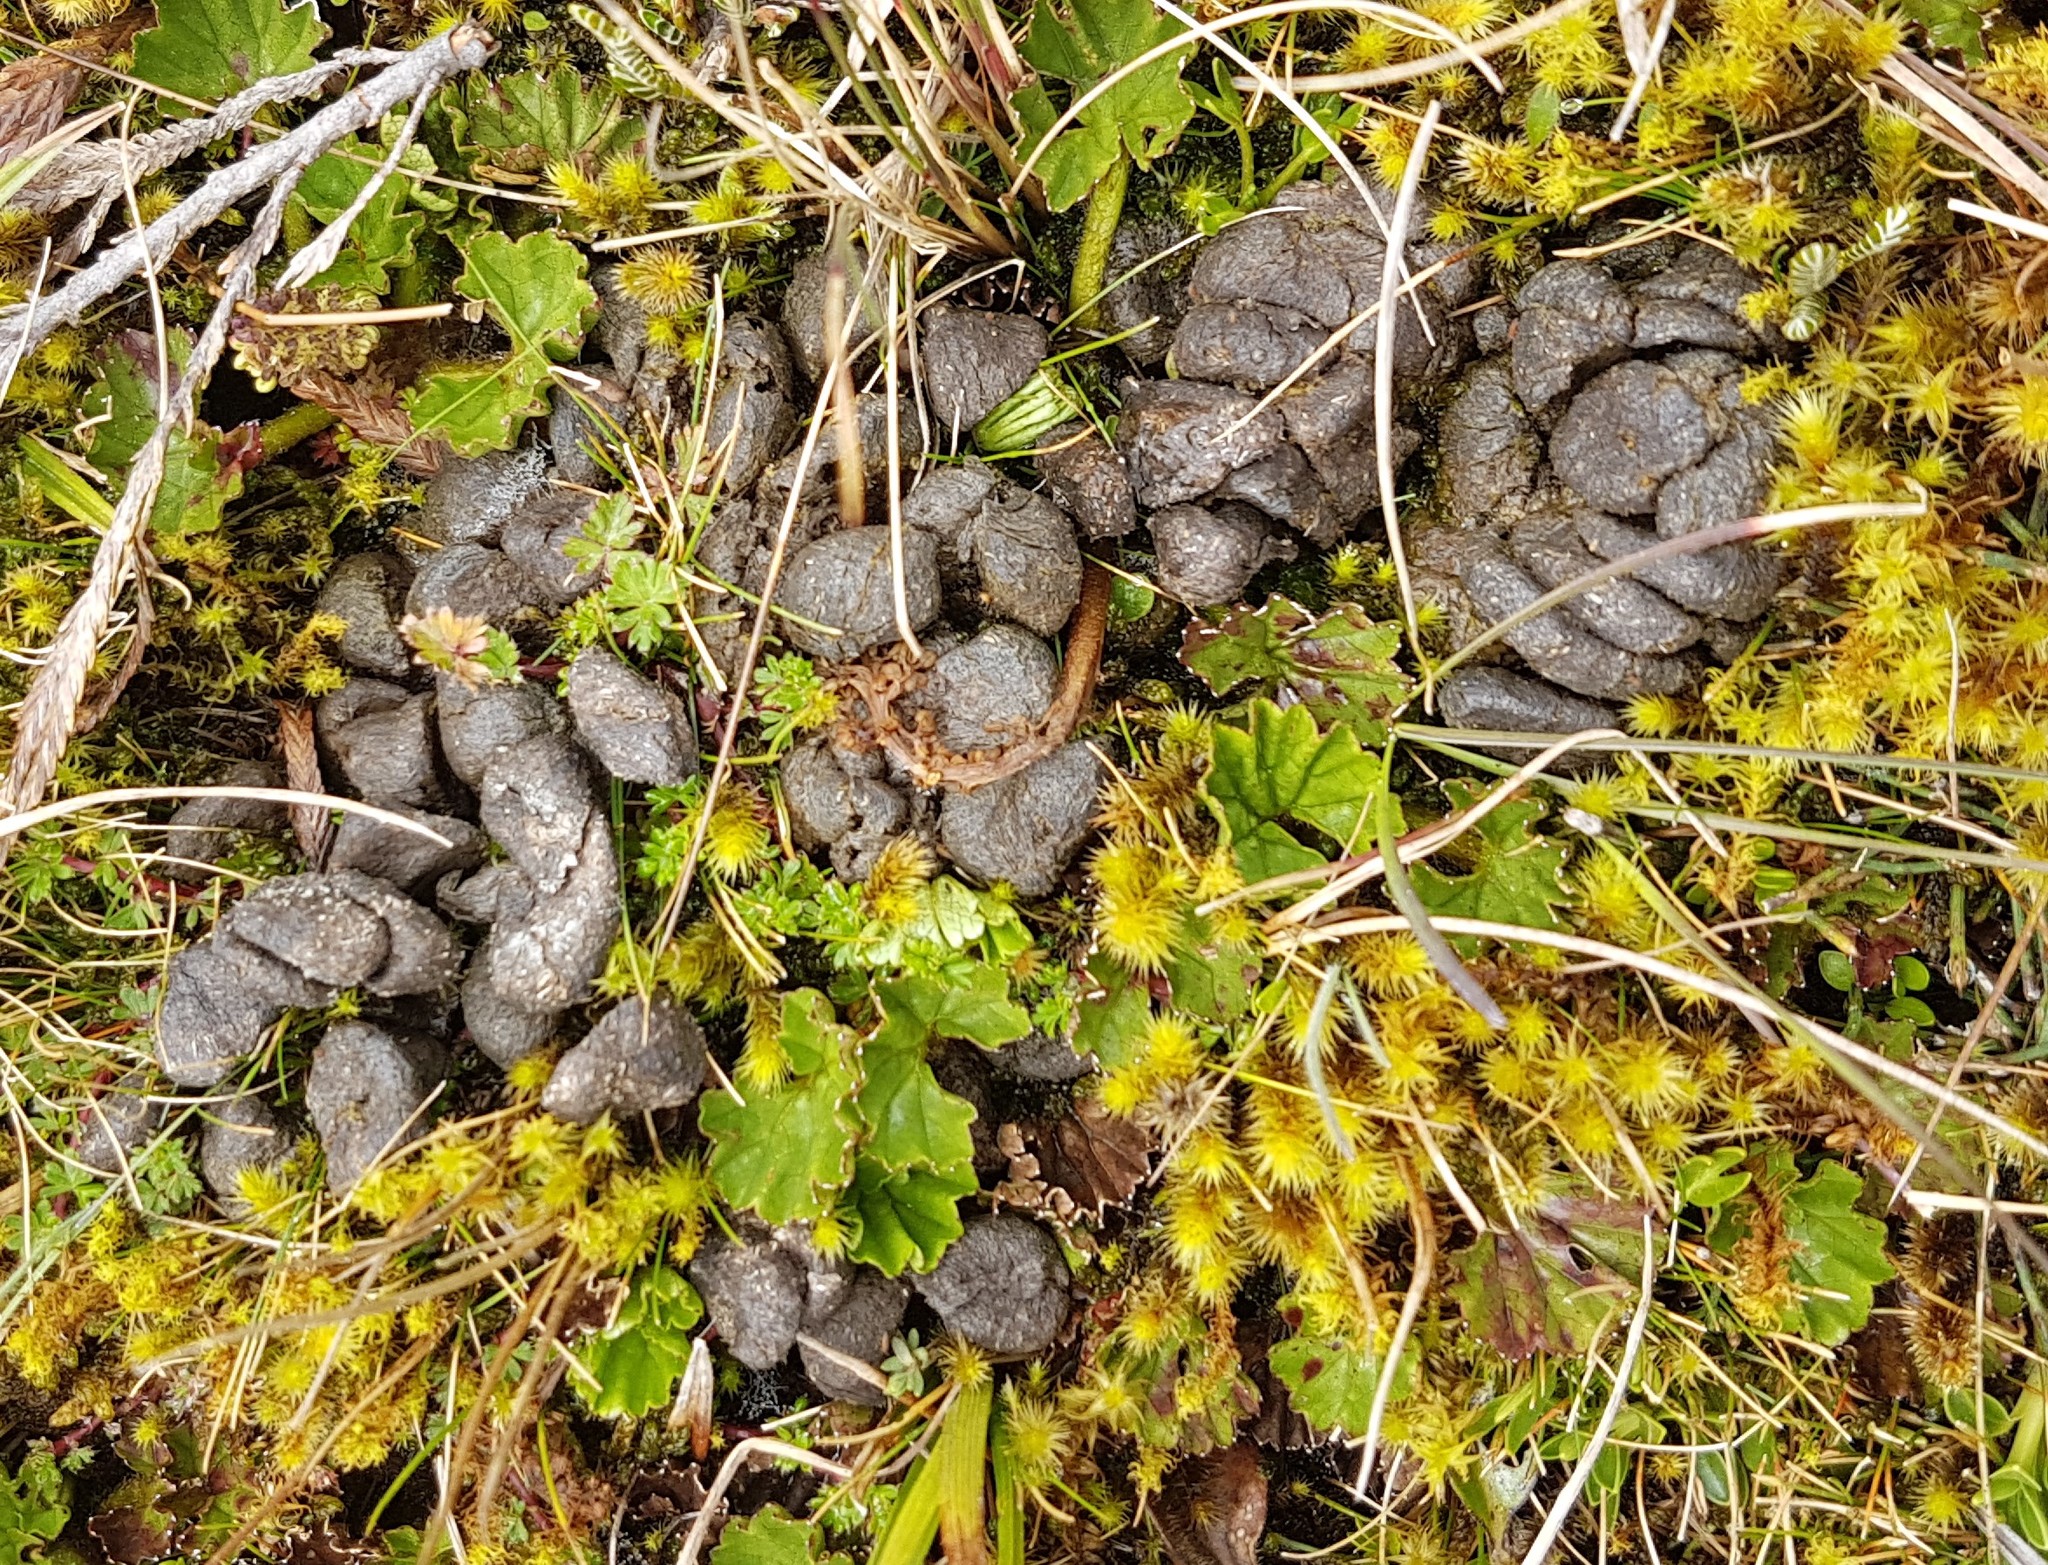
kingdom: Animalia
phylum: Chordata
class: Mammalia
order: Artiodactyla
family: Cervidae
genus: Odocoileus
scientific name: Odocoileus virginianus
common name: White-tailed deer
